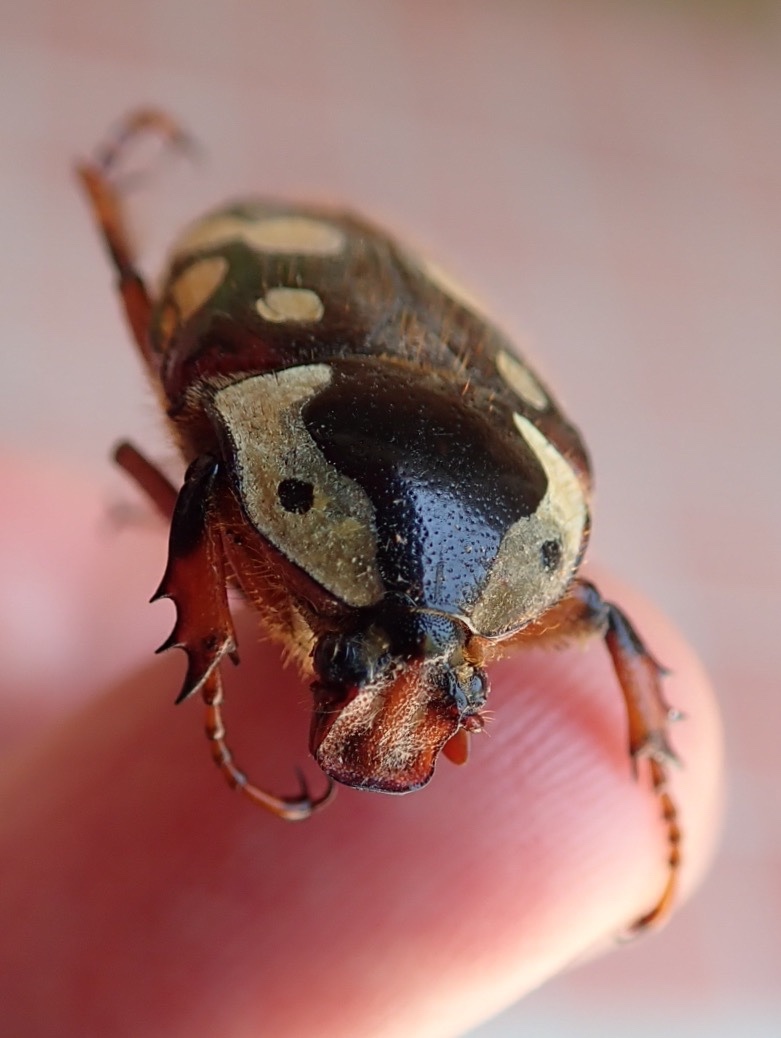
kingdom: Animalia
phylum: Arthropoda
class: Insecta
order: Coleoptera
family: Scarabaeidae
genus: Cheirolasia
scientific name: Cheirolasia burkei
